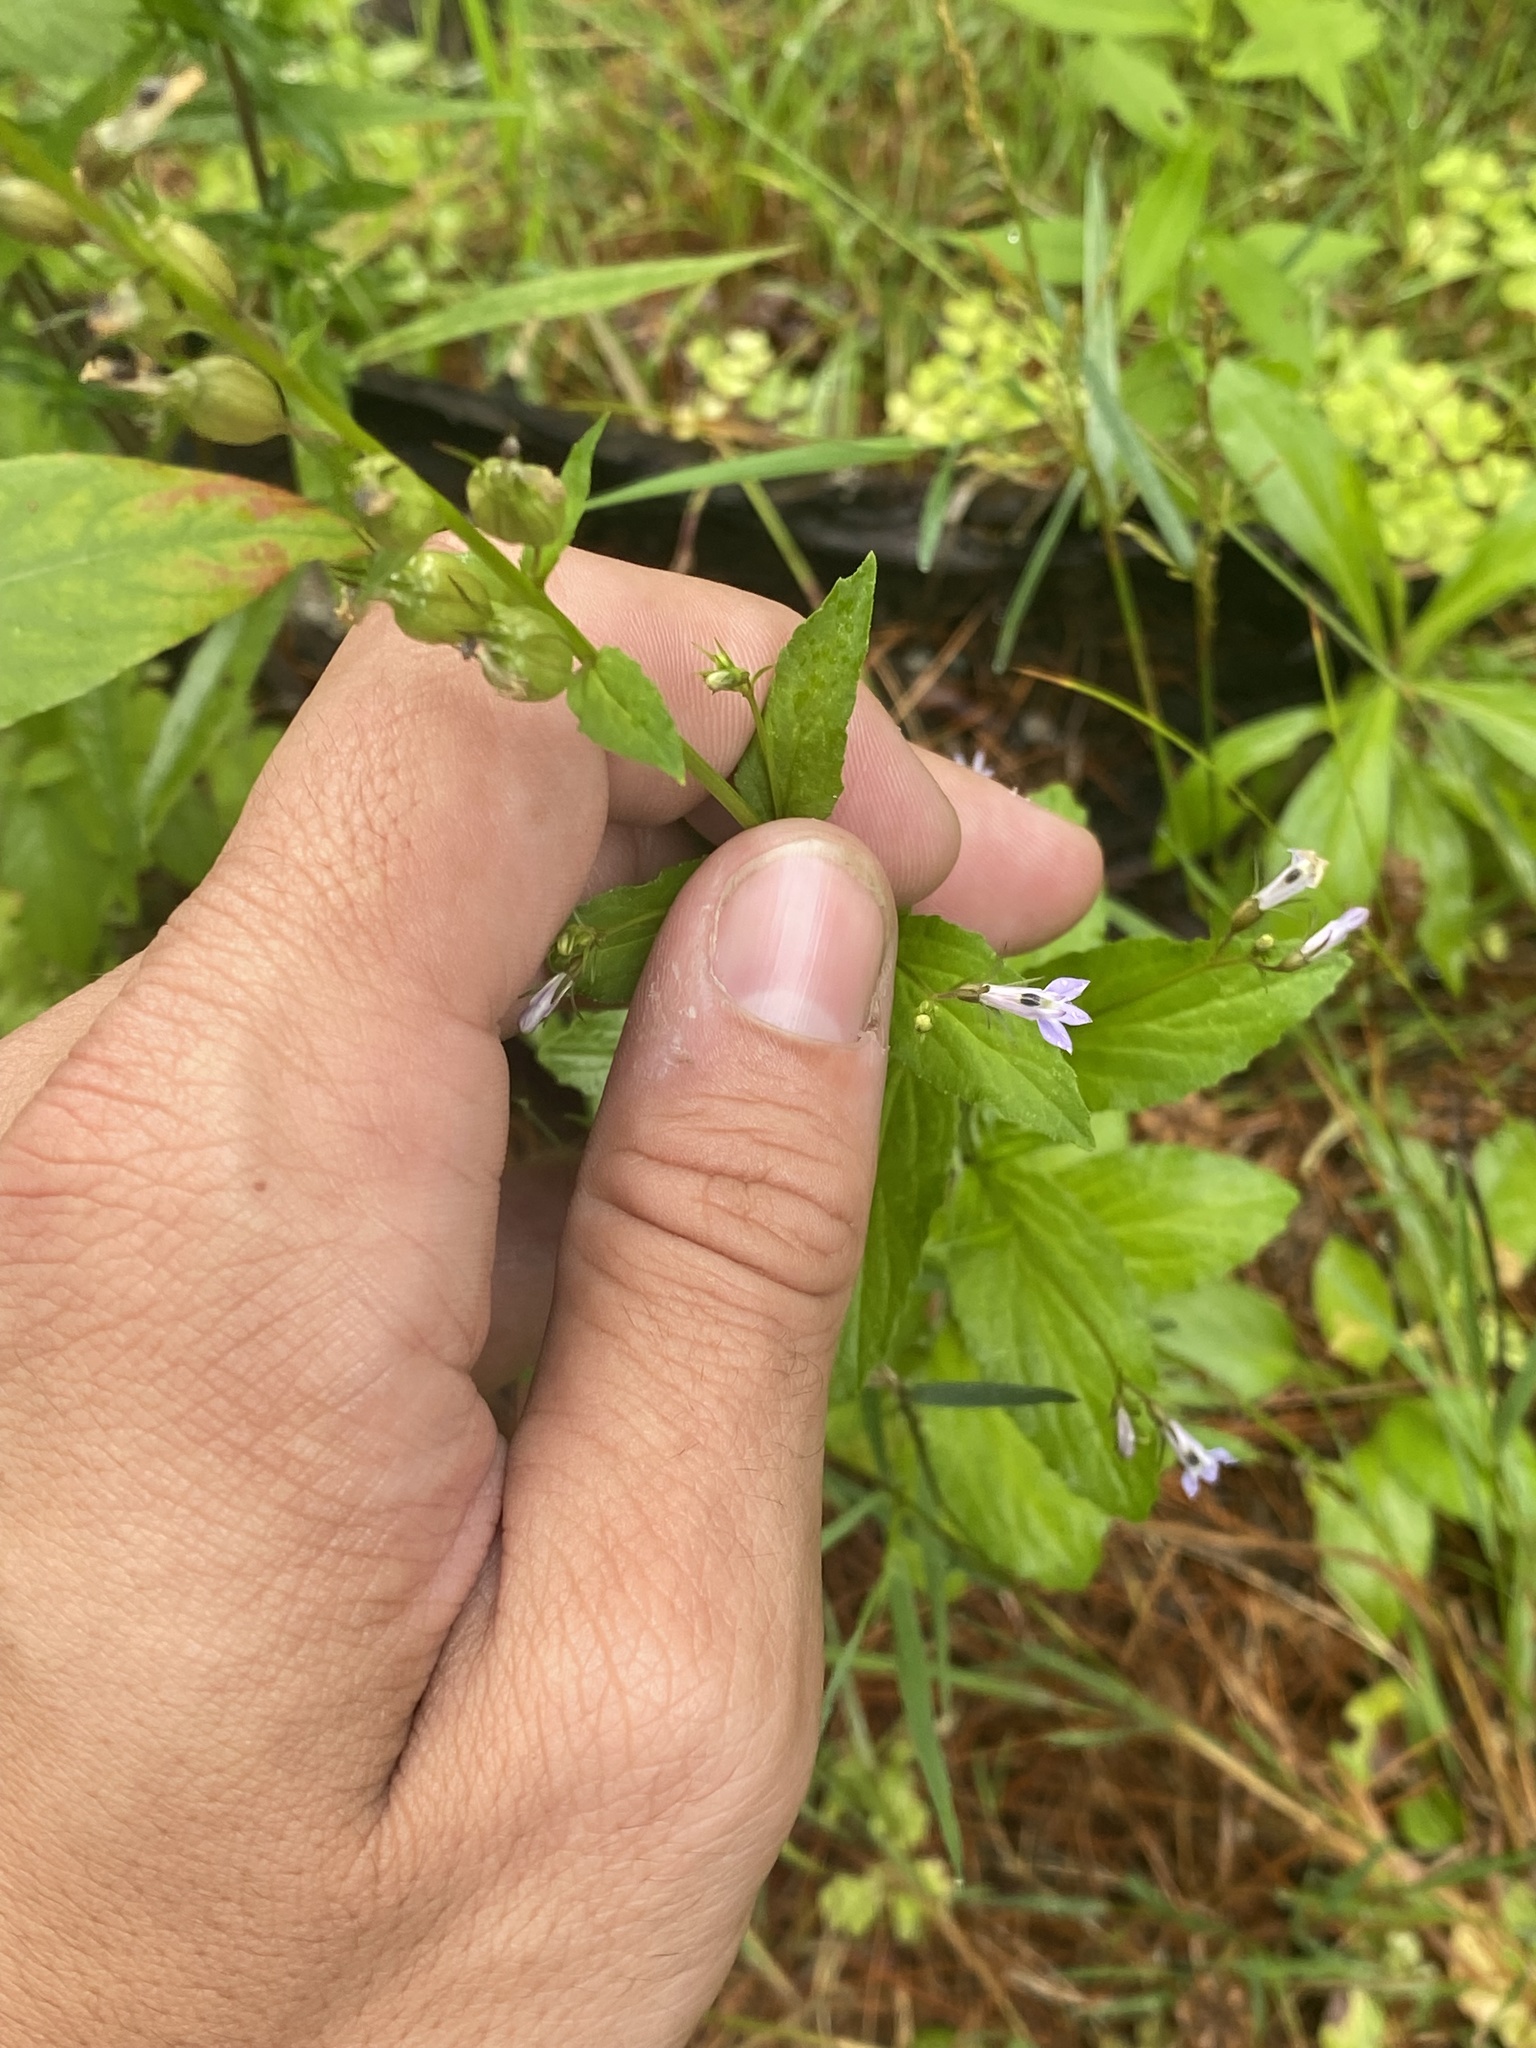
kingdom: Plantae
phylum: Tracheophyta
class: Magnoliopsida
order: Asterales
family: Campanulaceae
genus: Lobelia
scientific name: Lobelia inflata
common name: Indian tobacco
